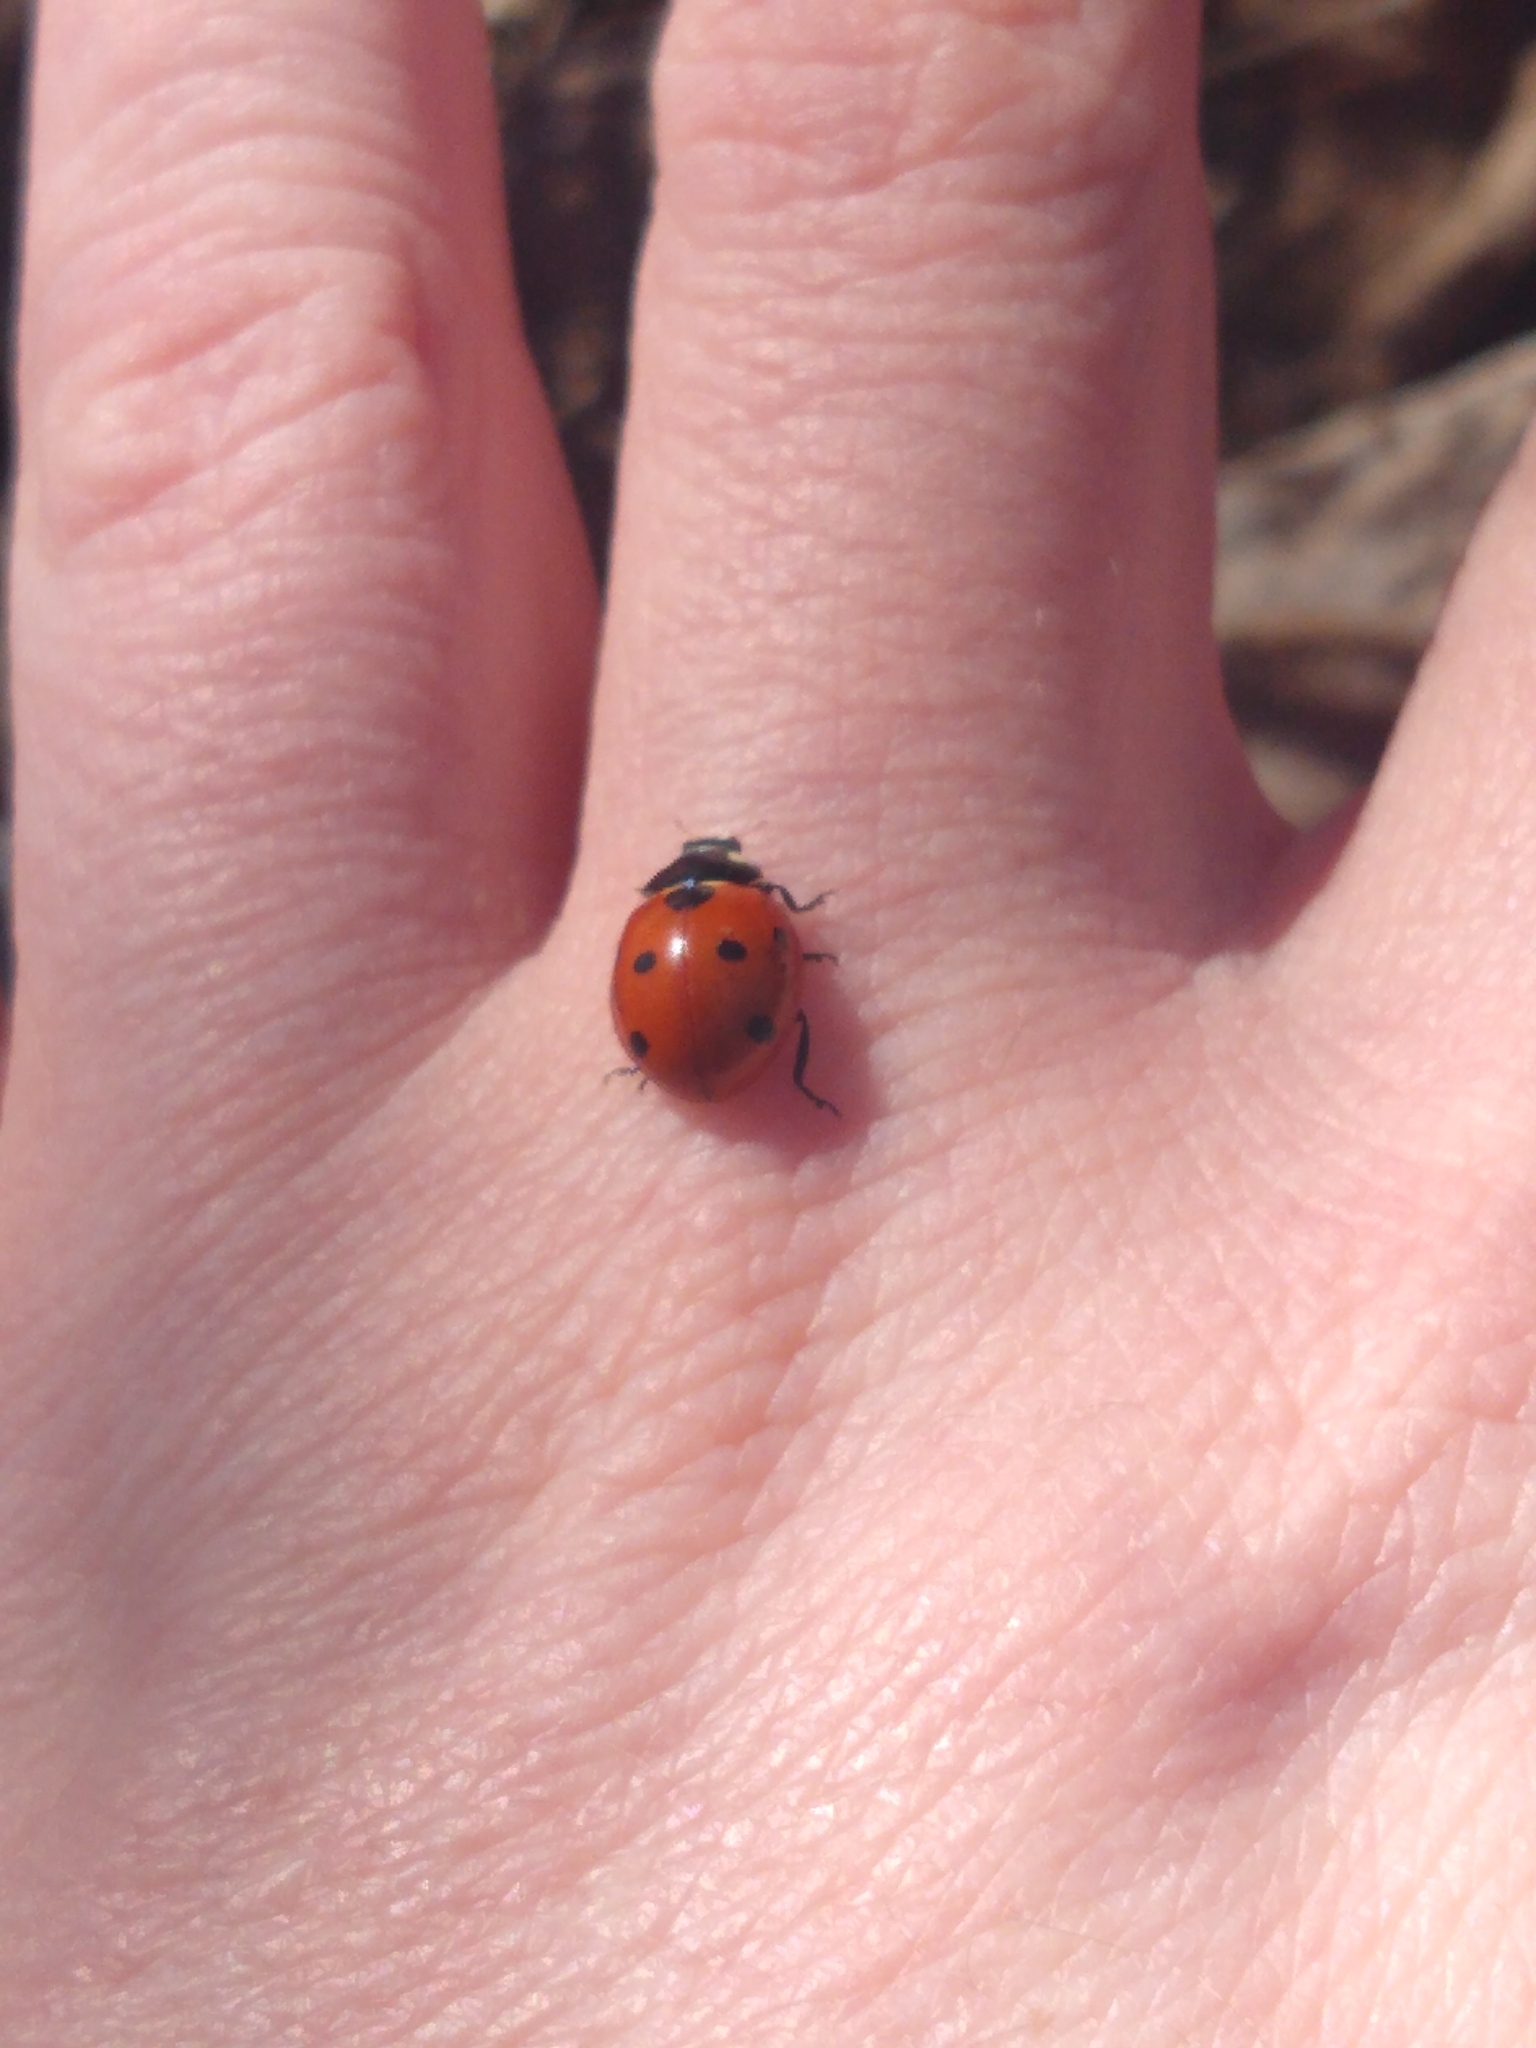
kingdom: Animalia
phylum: Arthropoda
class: Insecta
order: Coleoptera
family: Coccinellidae
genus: Coccinella
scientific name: Coccinella septempunctata
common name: Sevenspotted lady beetle
